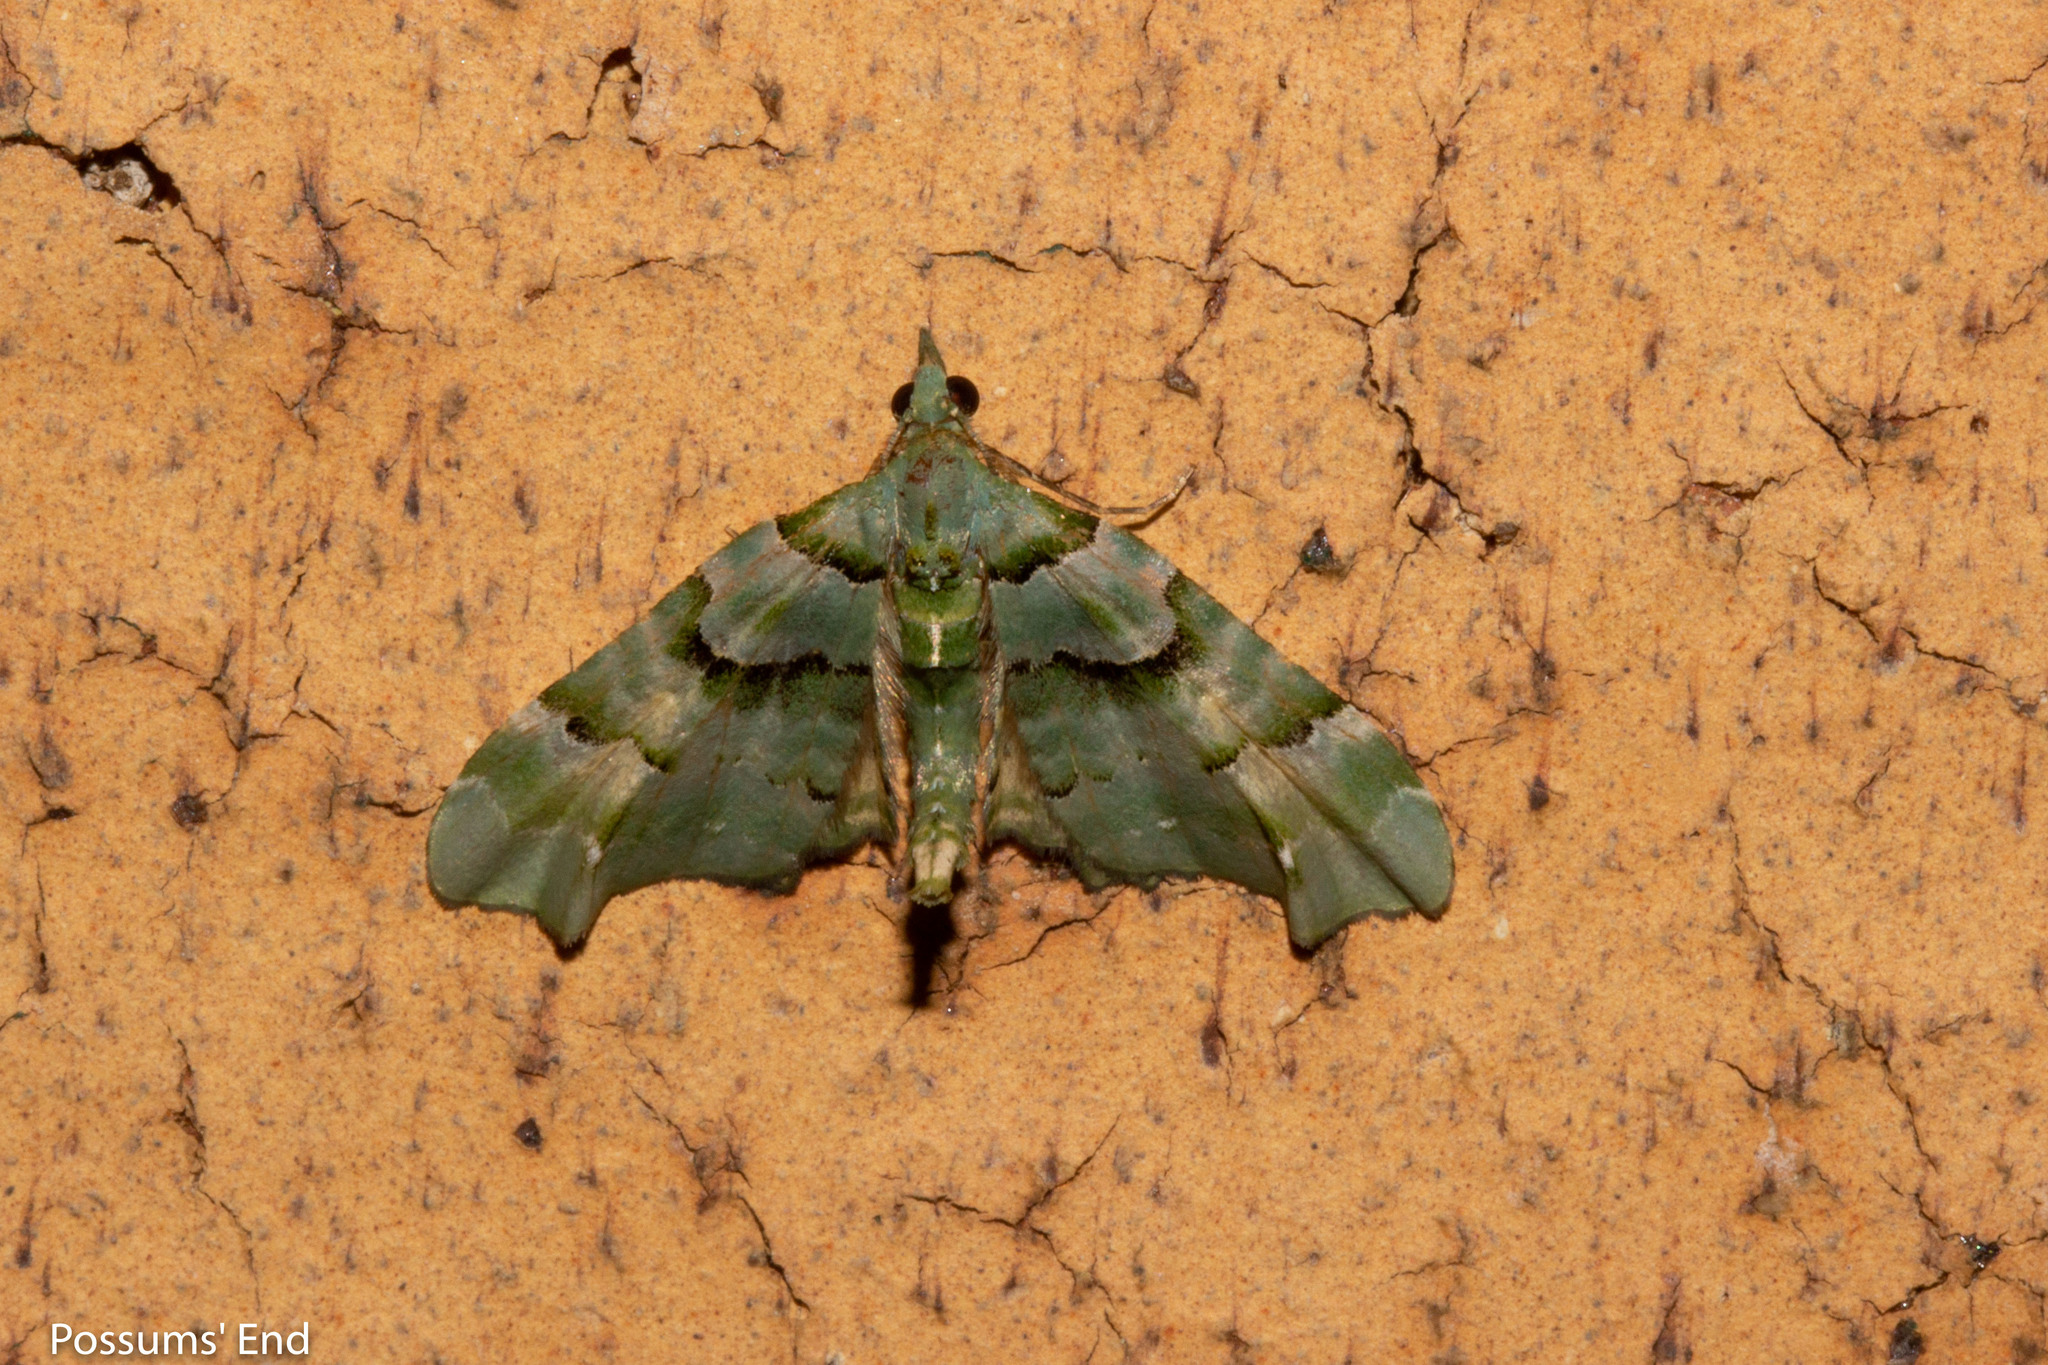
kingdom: Animalia
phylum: Arthropoda
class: Insecta
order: Lepidoptera
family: Geometridae
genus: Elvia
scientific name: Elvia glaucata
